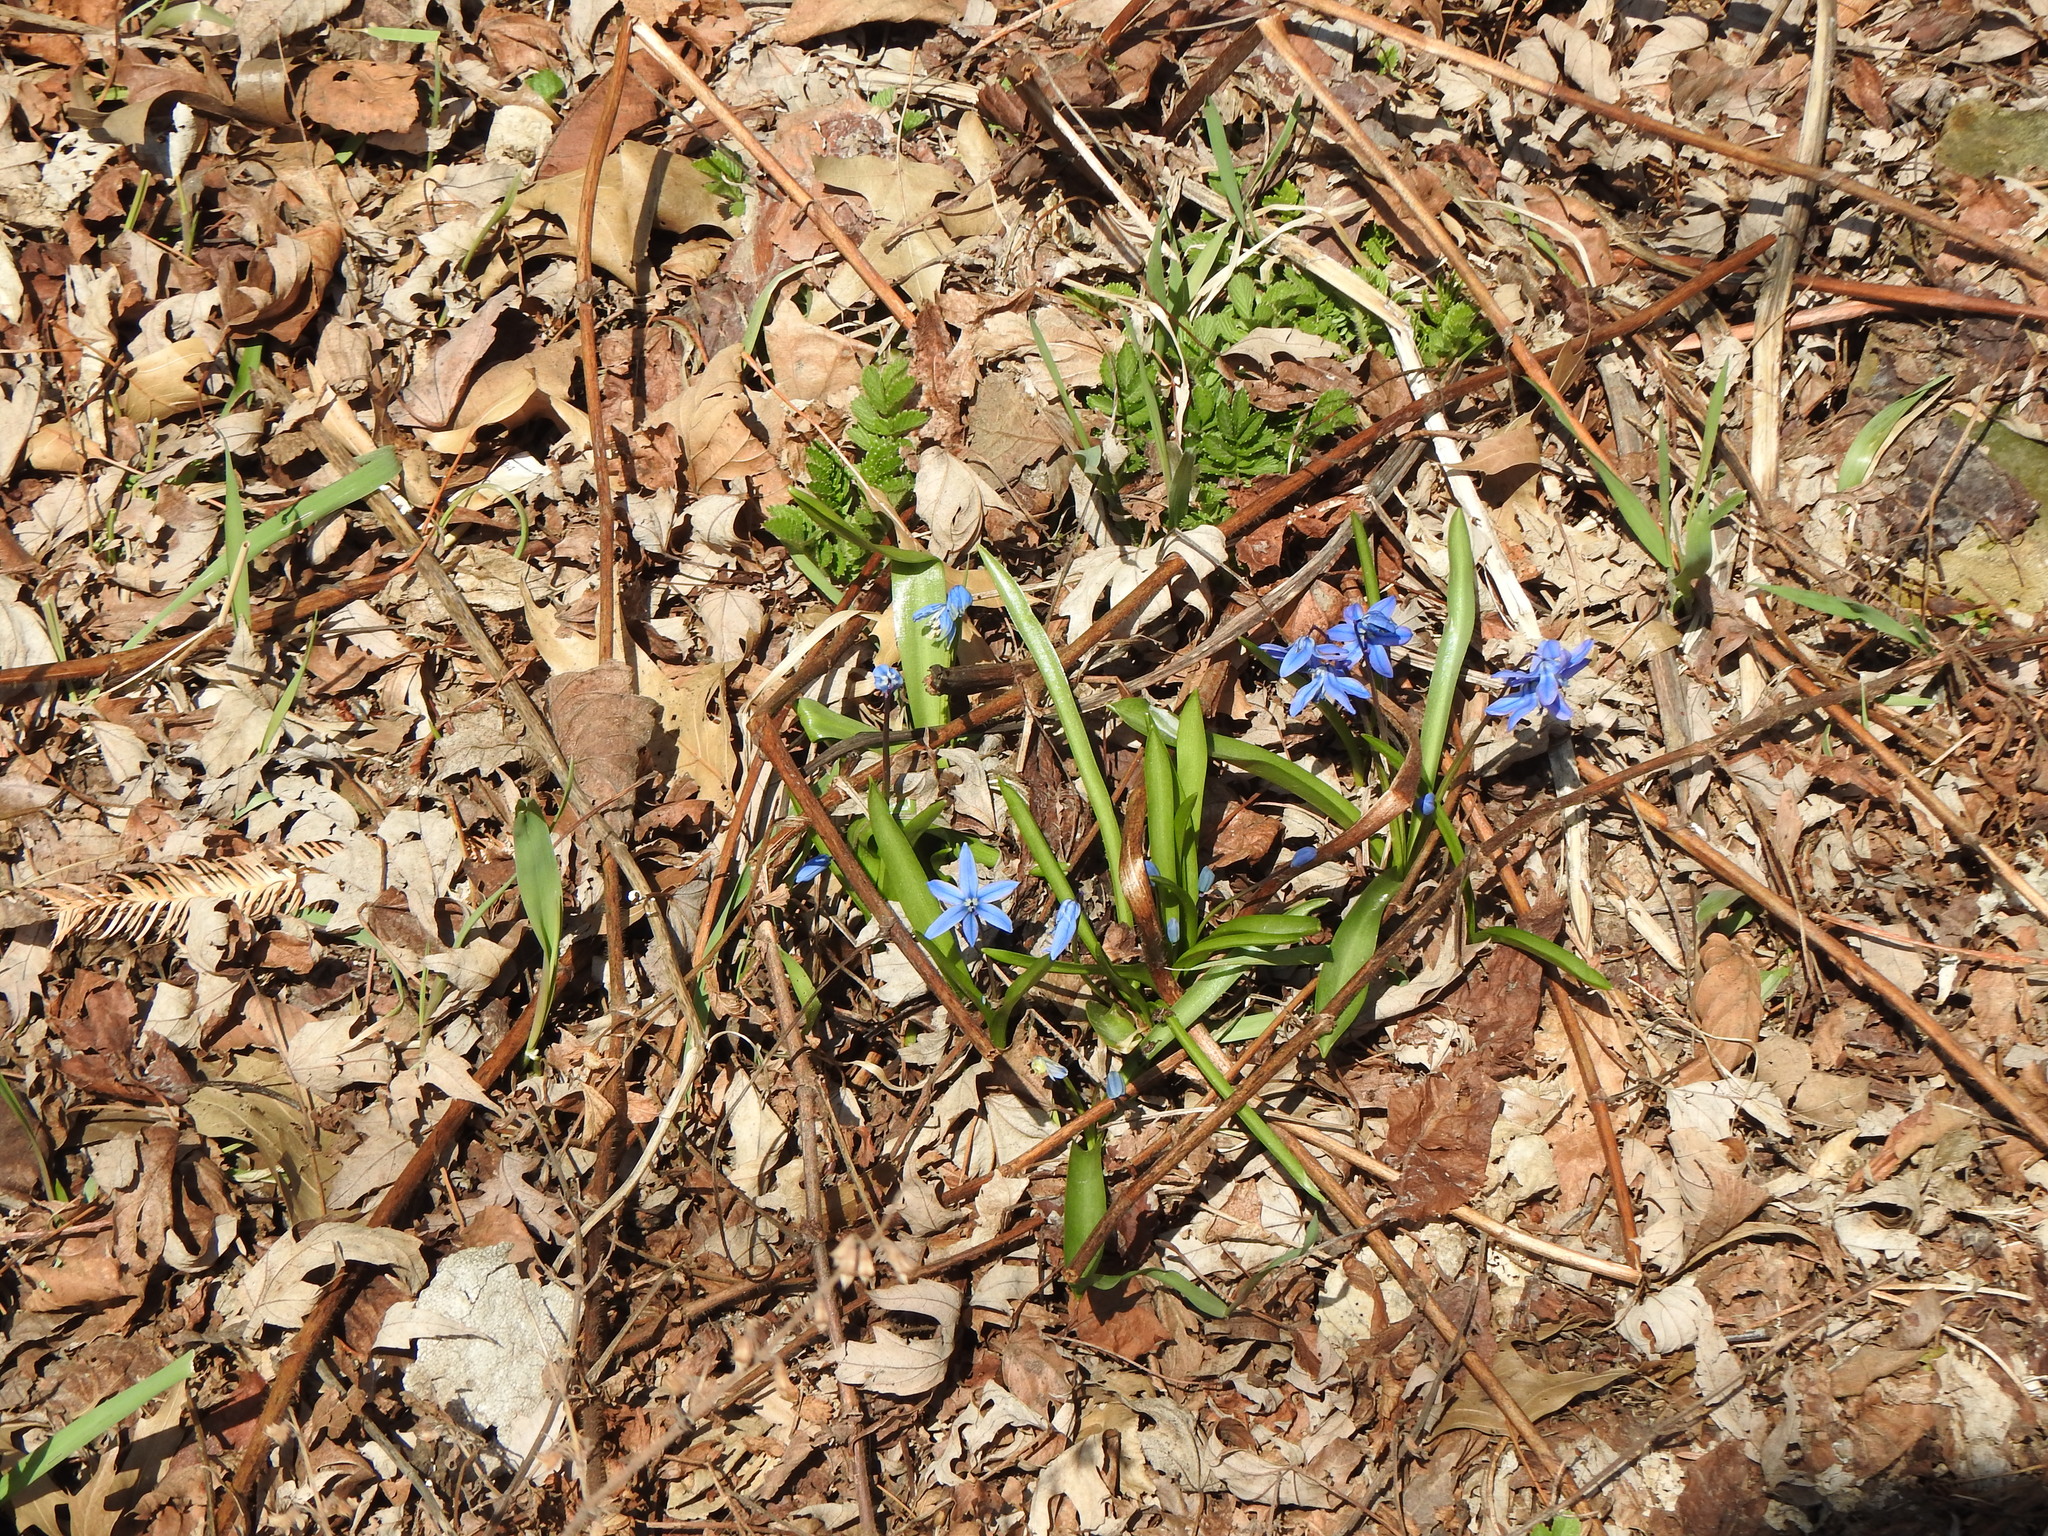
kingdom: Plantae
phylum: Tracheophyta
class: Liliopsida
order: Asparagales
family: Asparagaceae
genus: Scilla
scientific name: Scilla siberica
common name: Siberian squill
